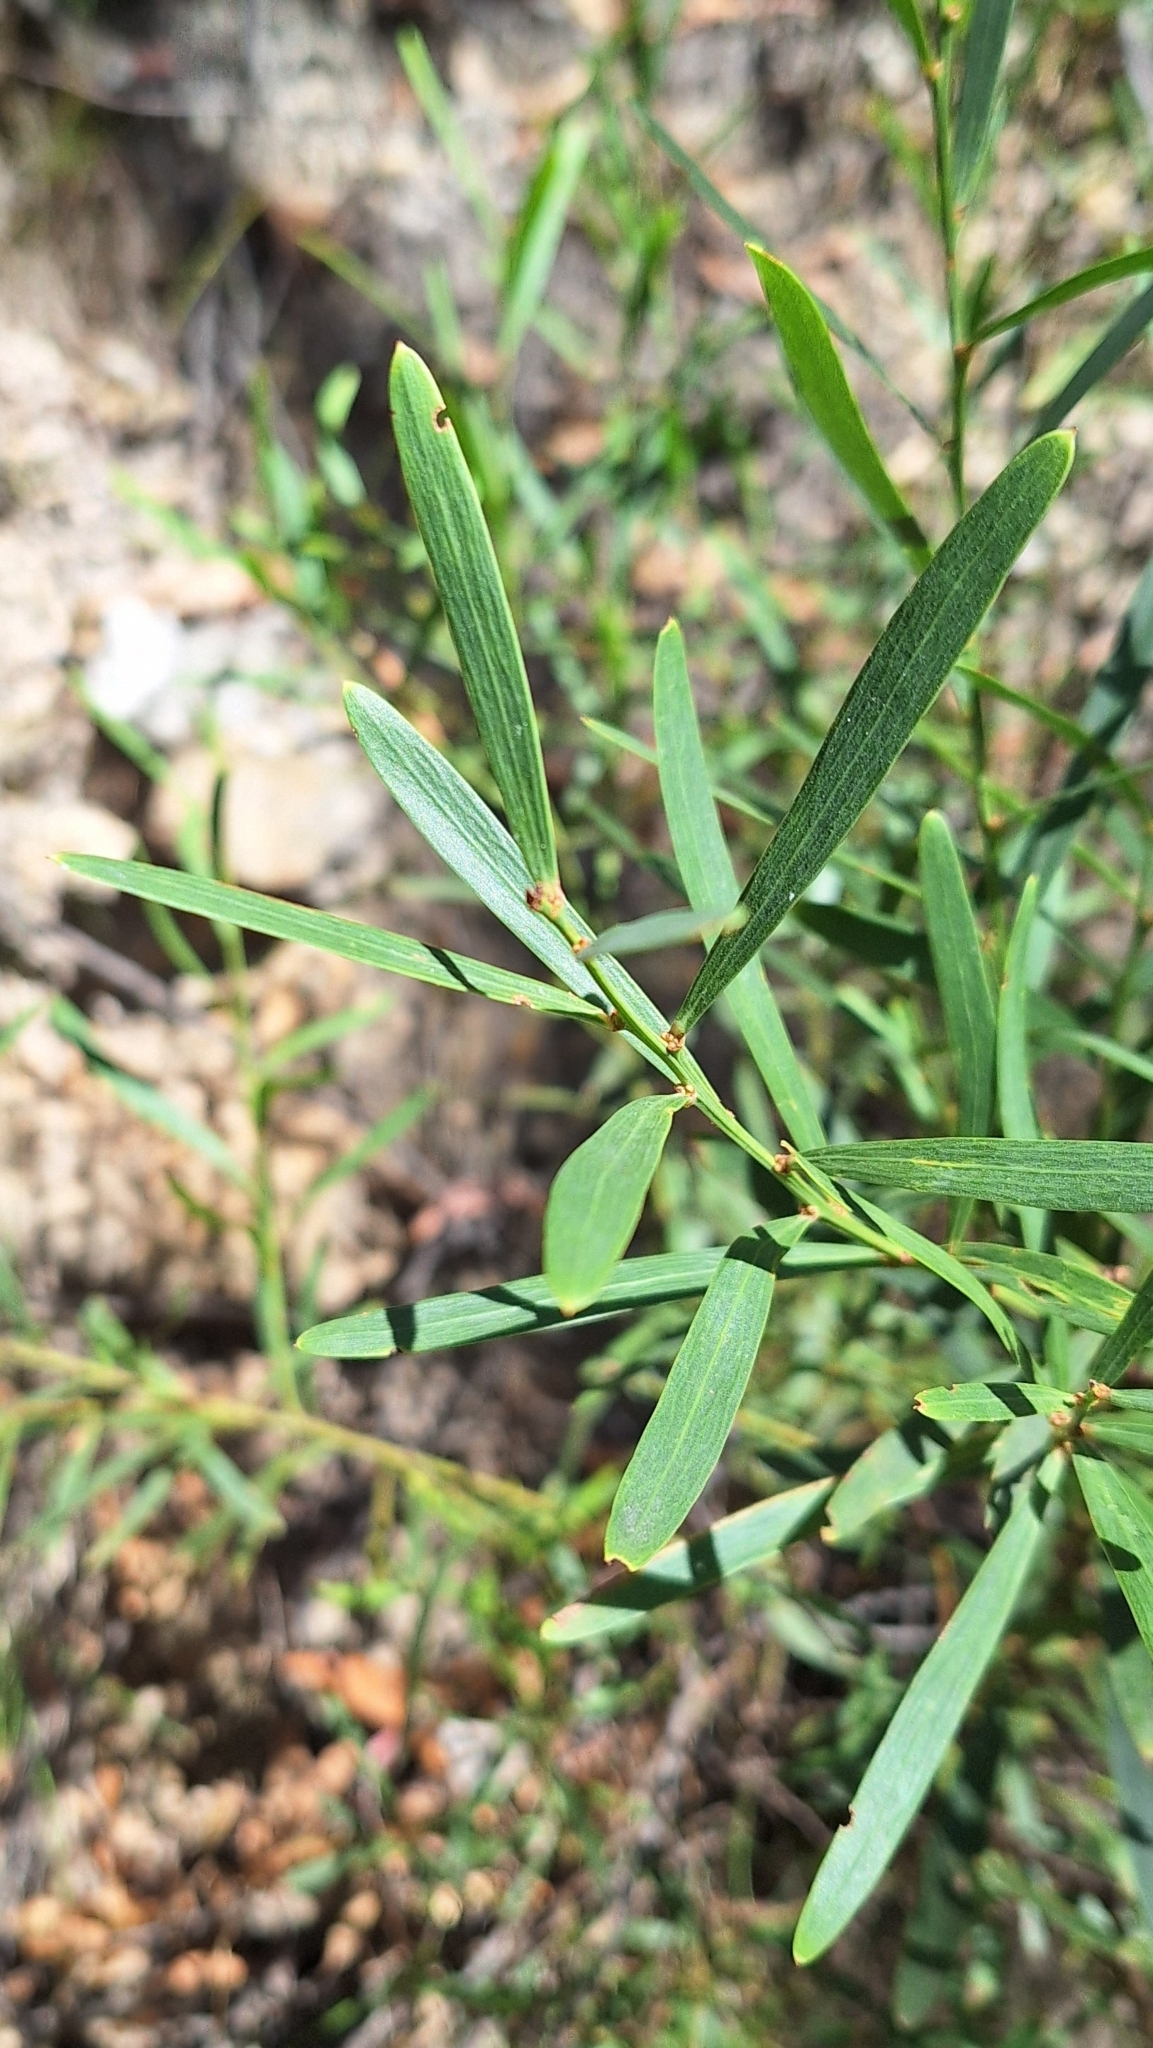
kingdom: Plantae
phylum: Tracheophyta
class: Magnoliopsida
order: Fabales
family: Fabaceae
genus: Daviesia
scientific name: Daviesia leptophylla
